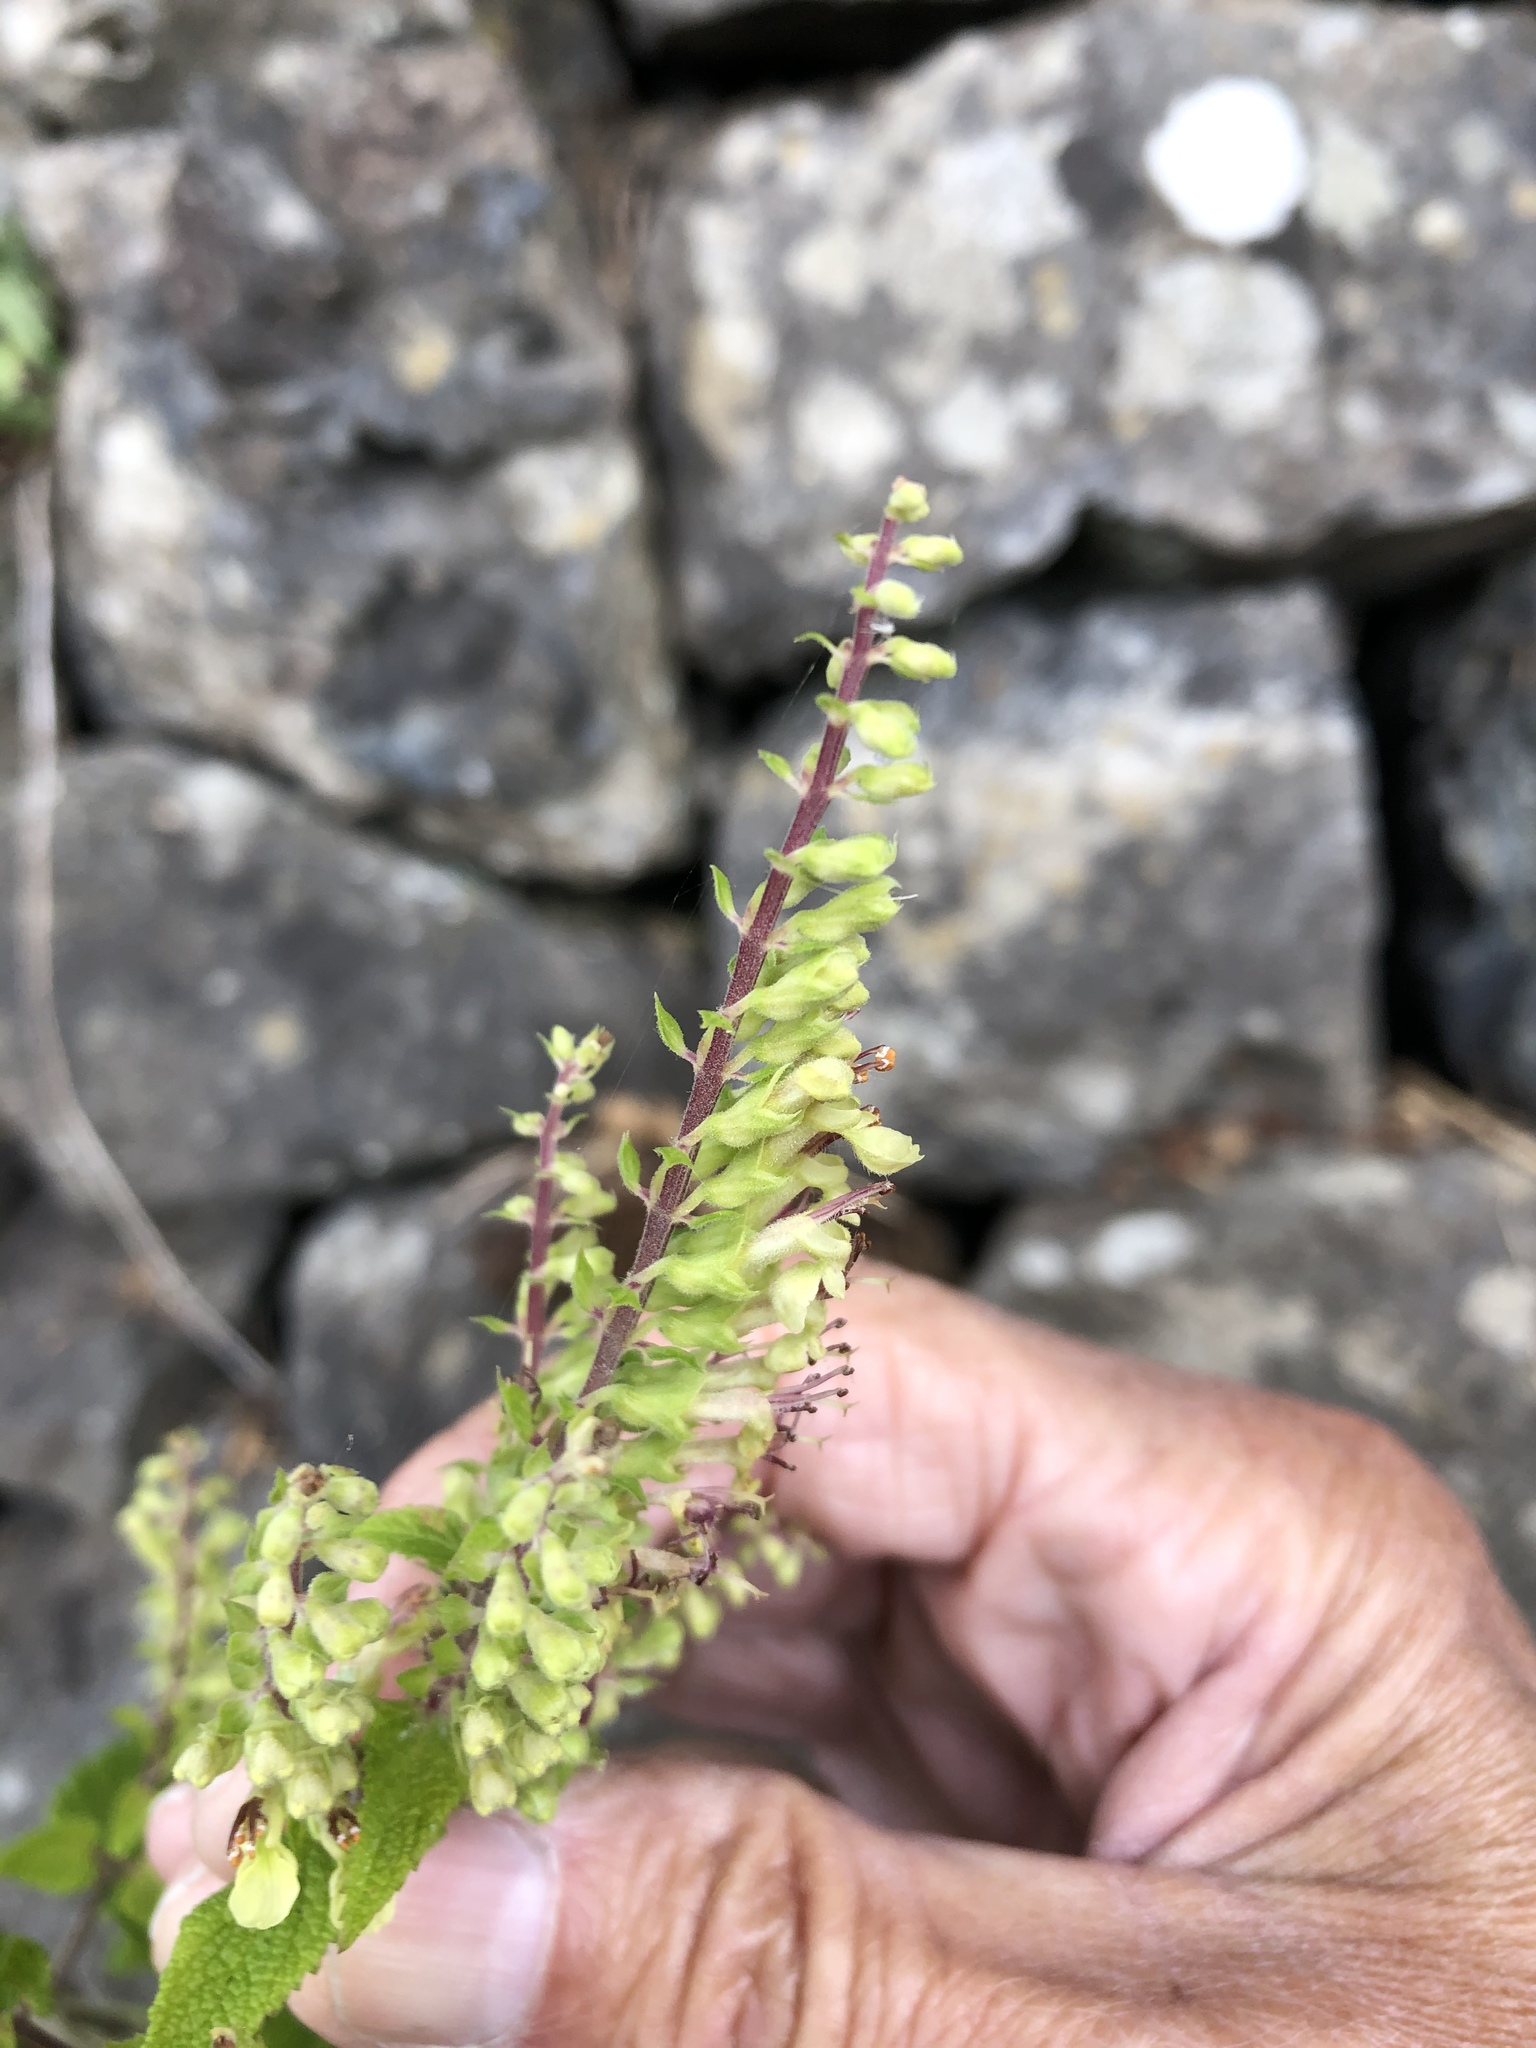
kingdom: Plantae
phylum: Tracheophyta
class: Magnoliopsida
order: Lamiales
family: Lamiaceae
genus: Teucrium
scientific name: Teucrium scorodonia
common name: Woodland germander
